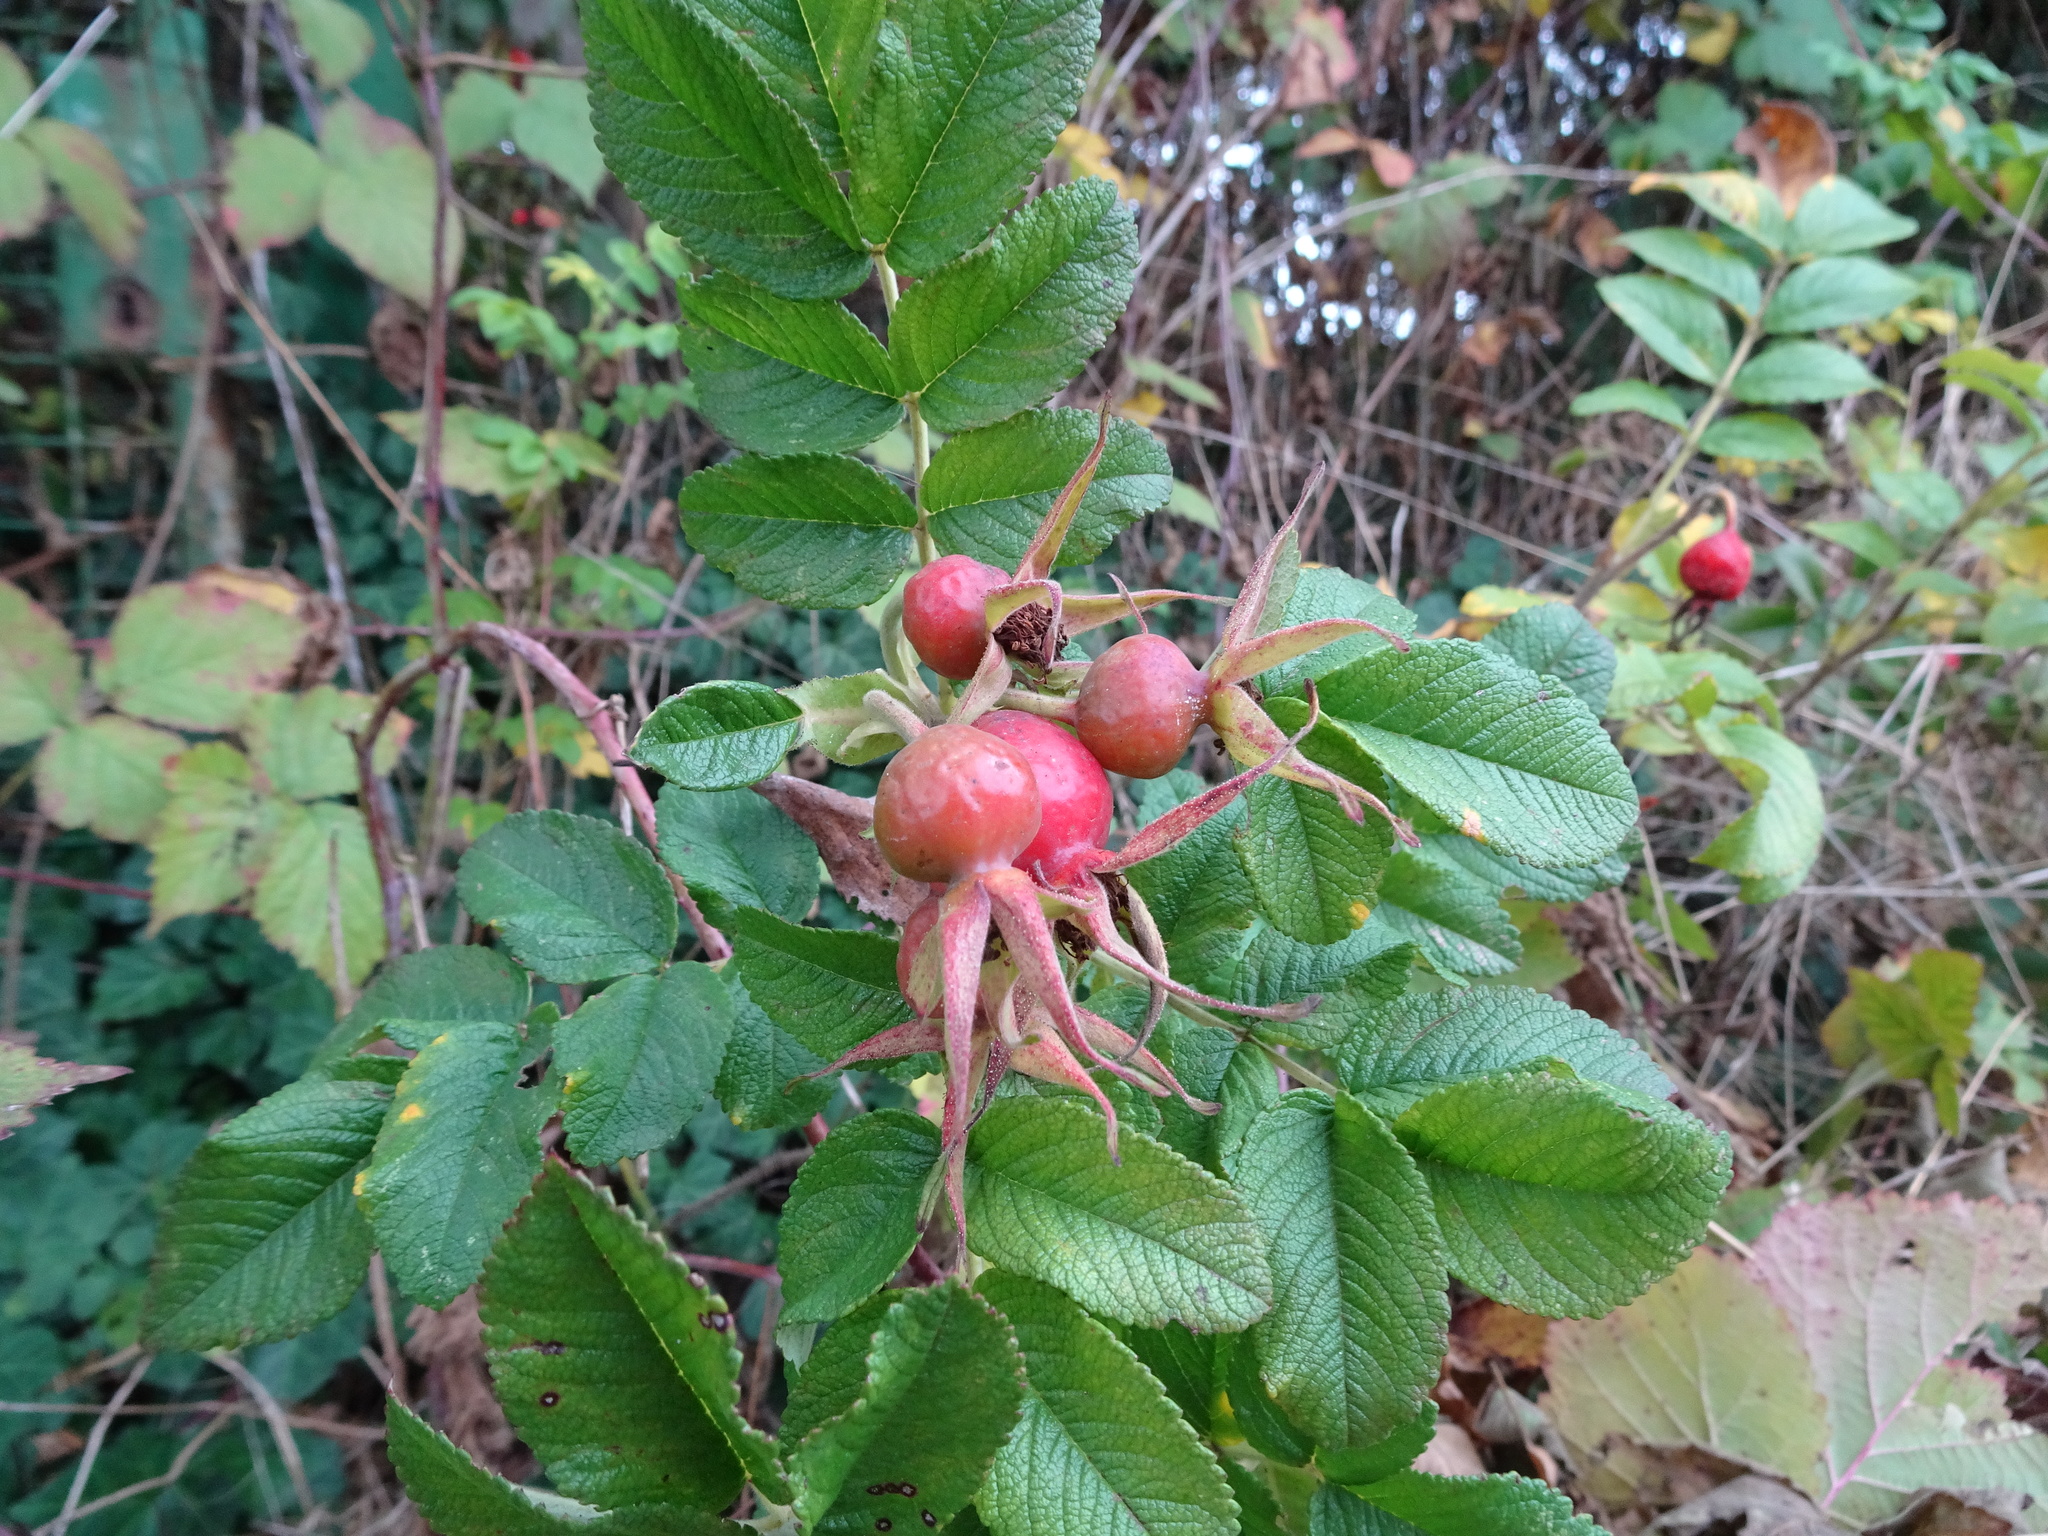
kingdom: Plantae
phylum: Tracheophyta
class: Magnoliopsida
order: Rosales
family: Rosaceae
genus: Rosa
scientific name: Rosa rugosa
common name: Japanese rose
